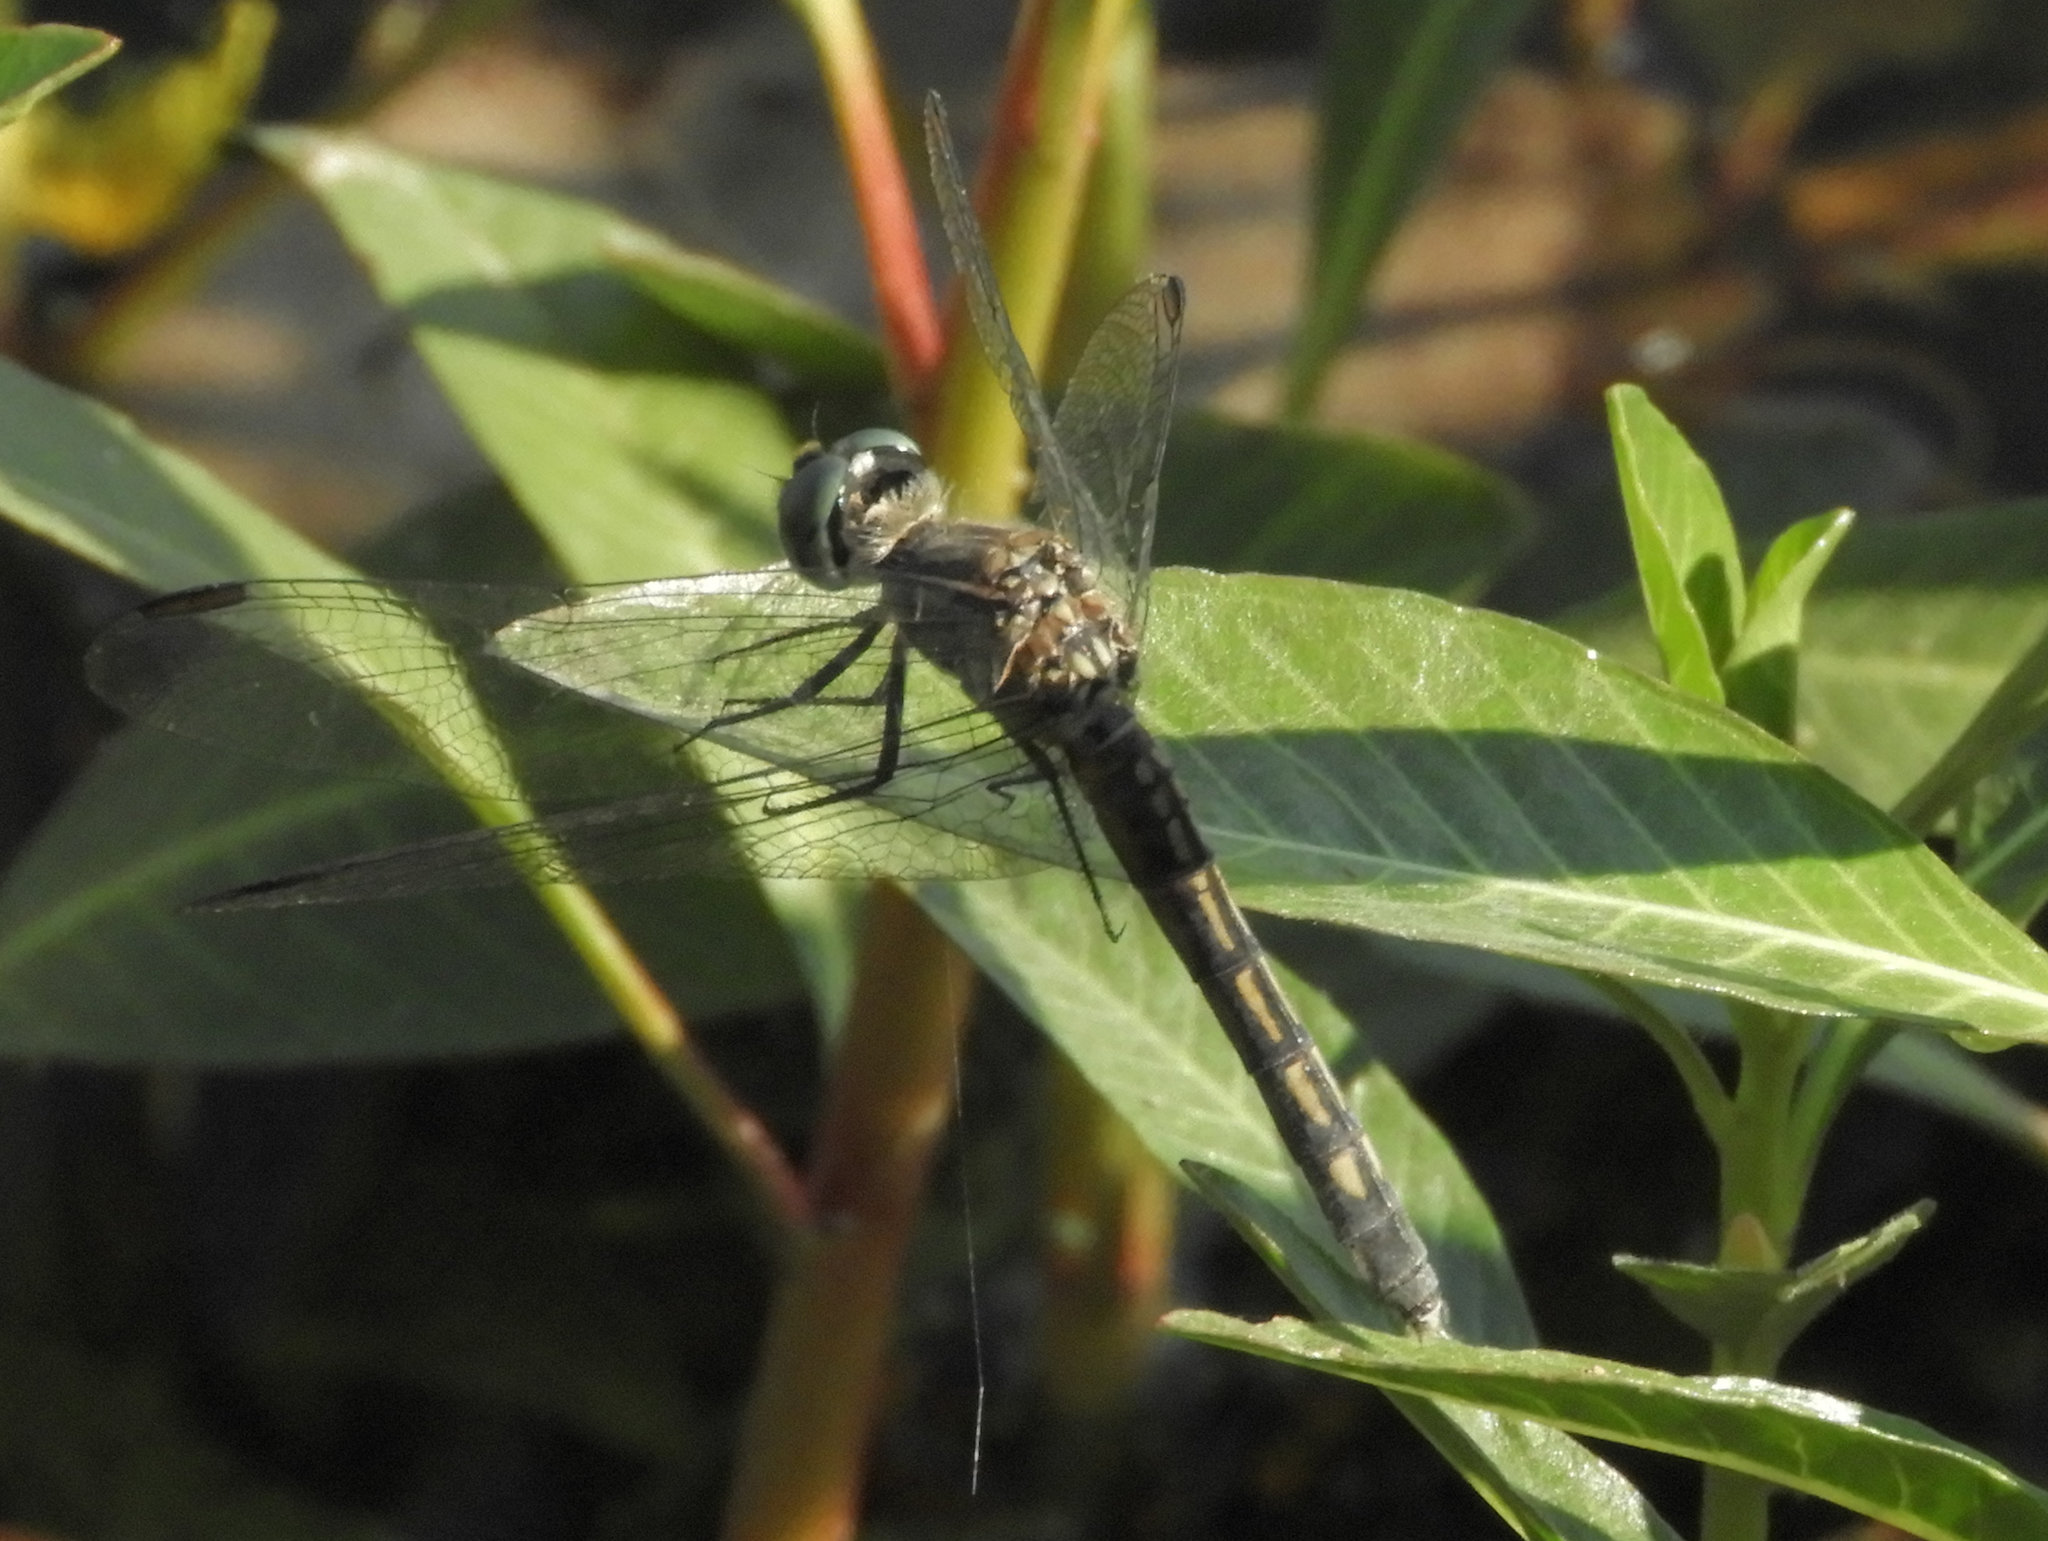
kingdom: Animalia
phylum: Arthropoda
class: Insecta
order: Odonata
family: Libellulidae
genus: Pachydiplax
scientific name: Pachydiplax longipennis
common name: Blue dasher
